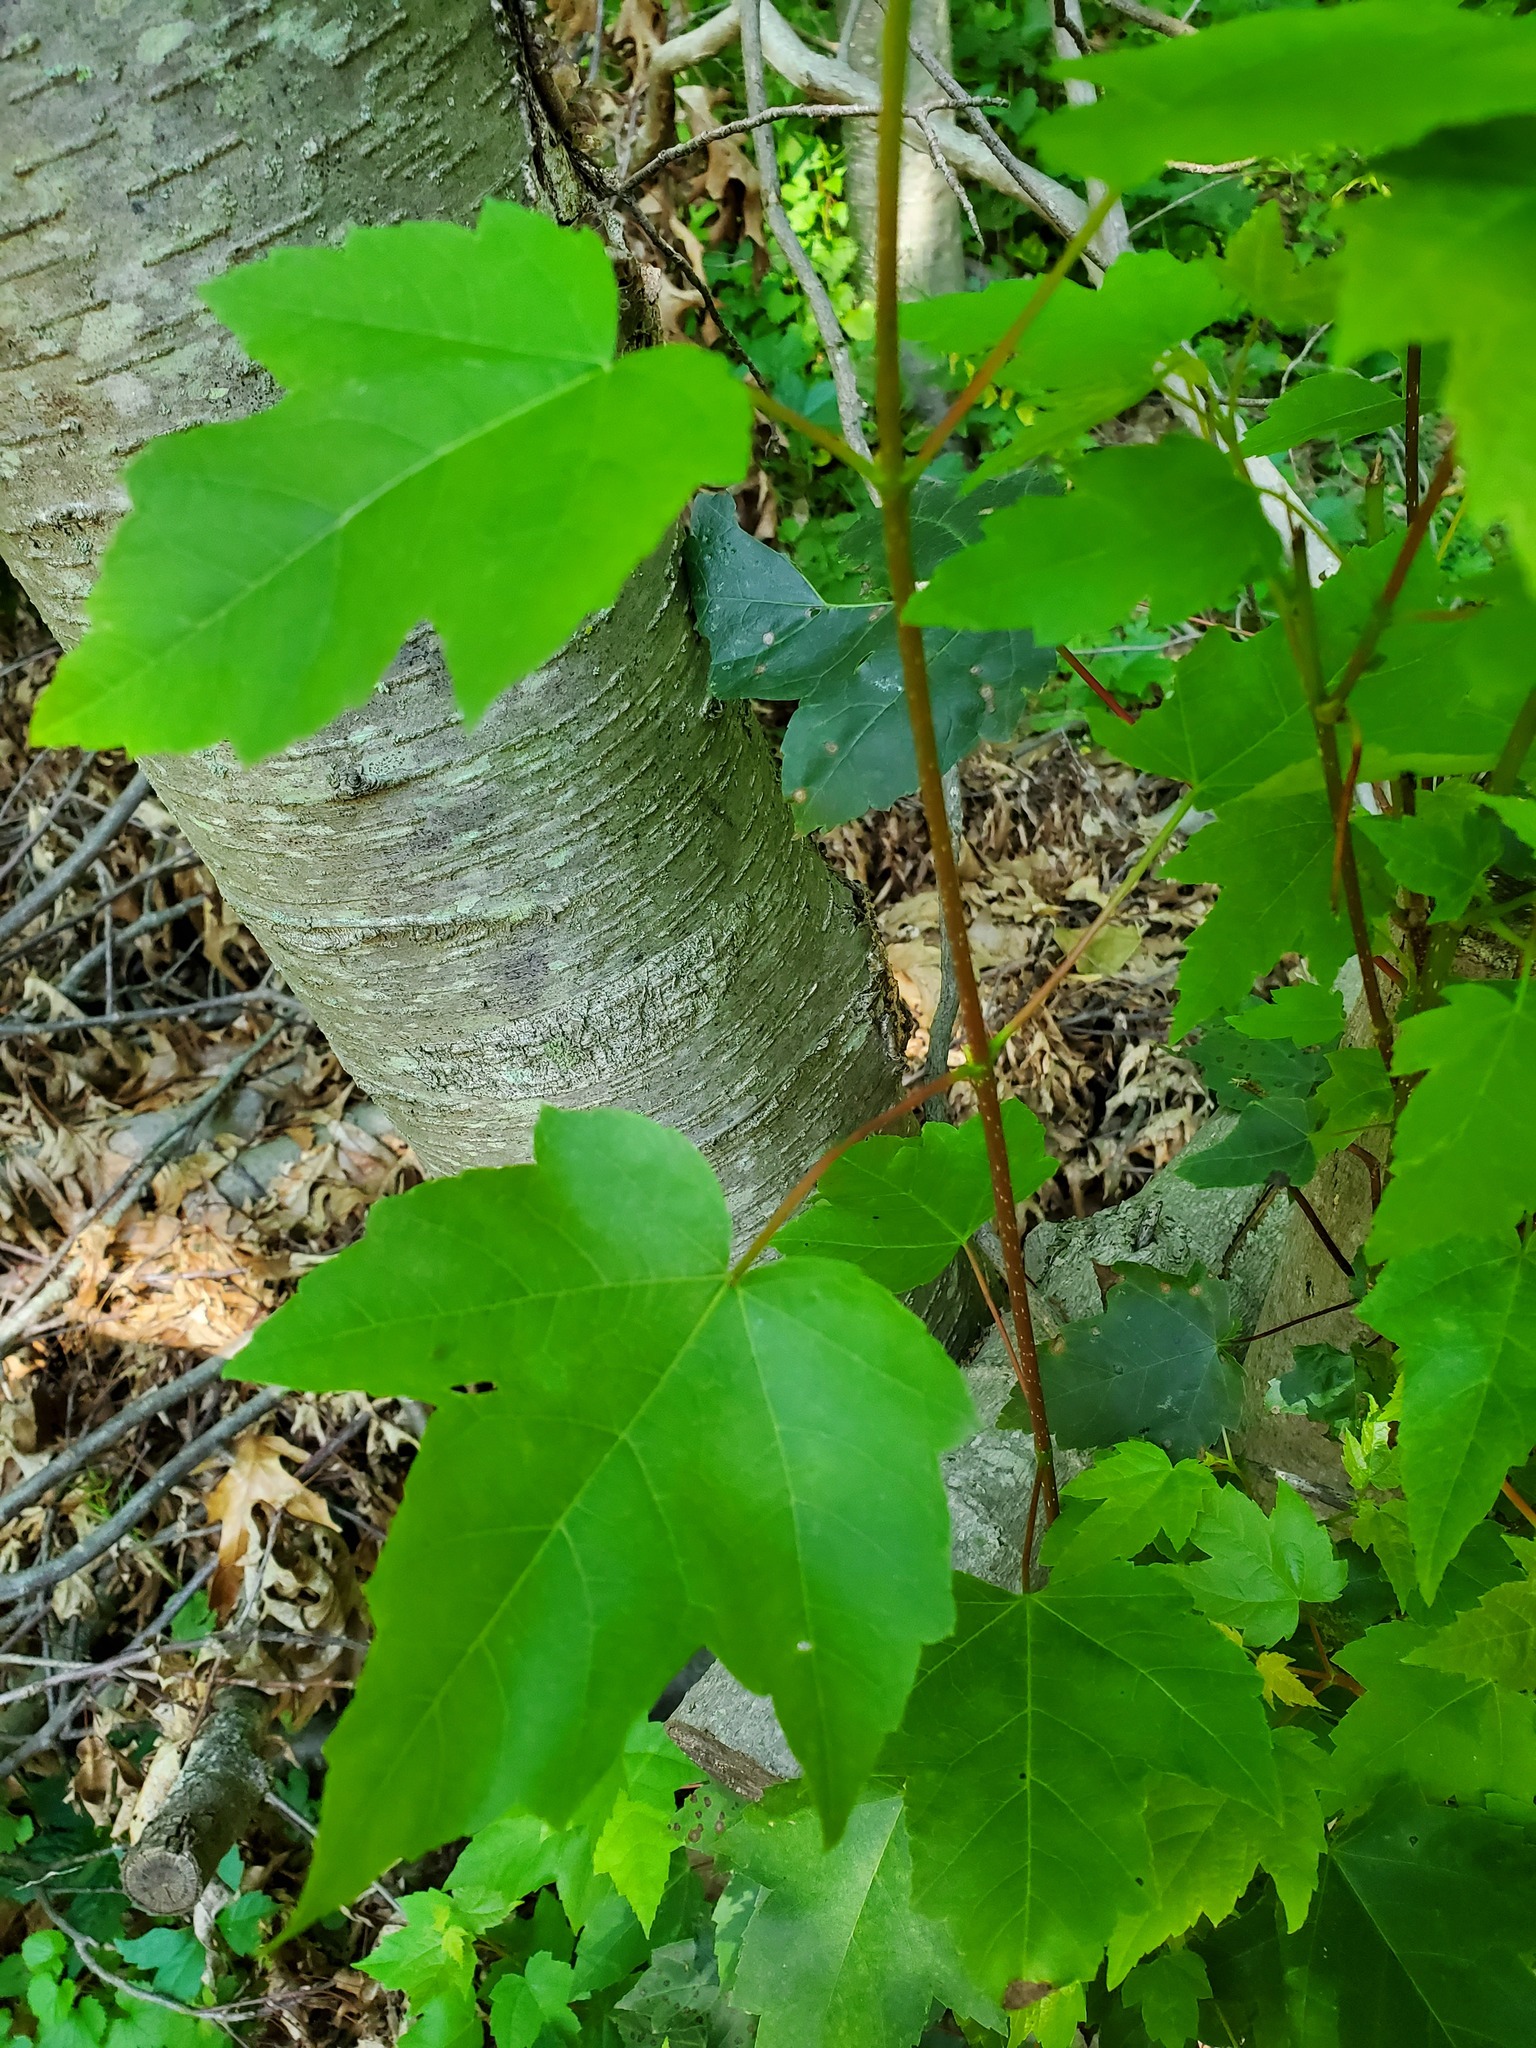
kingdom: Plantae
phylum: Tracheophyta
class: Magnoliopsida
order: Sapindales
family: Sapindaceae
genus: Acer
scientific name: Acer rubrum
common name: Red maple
